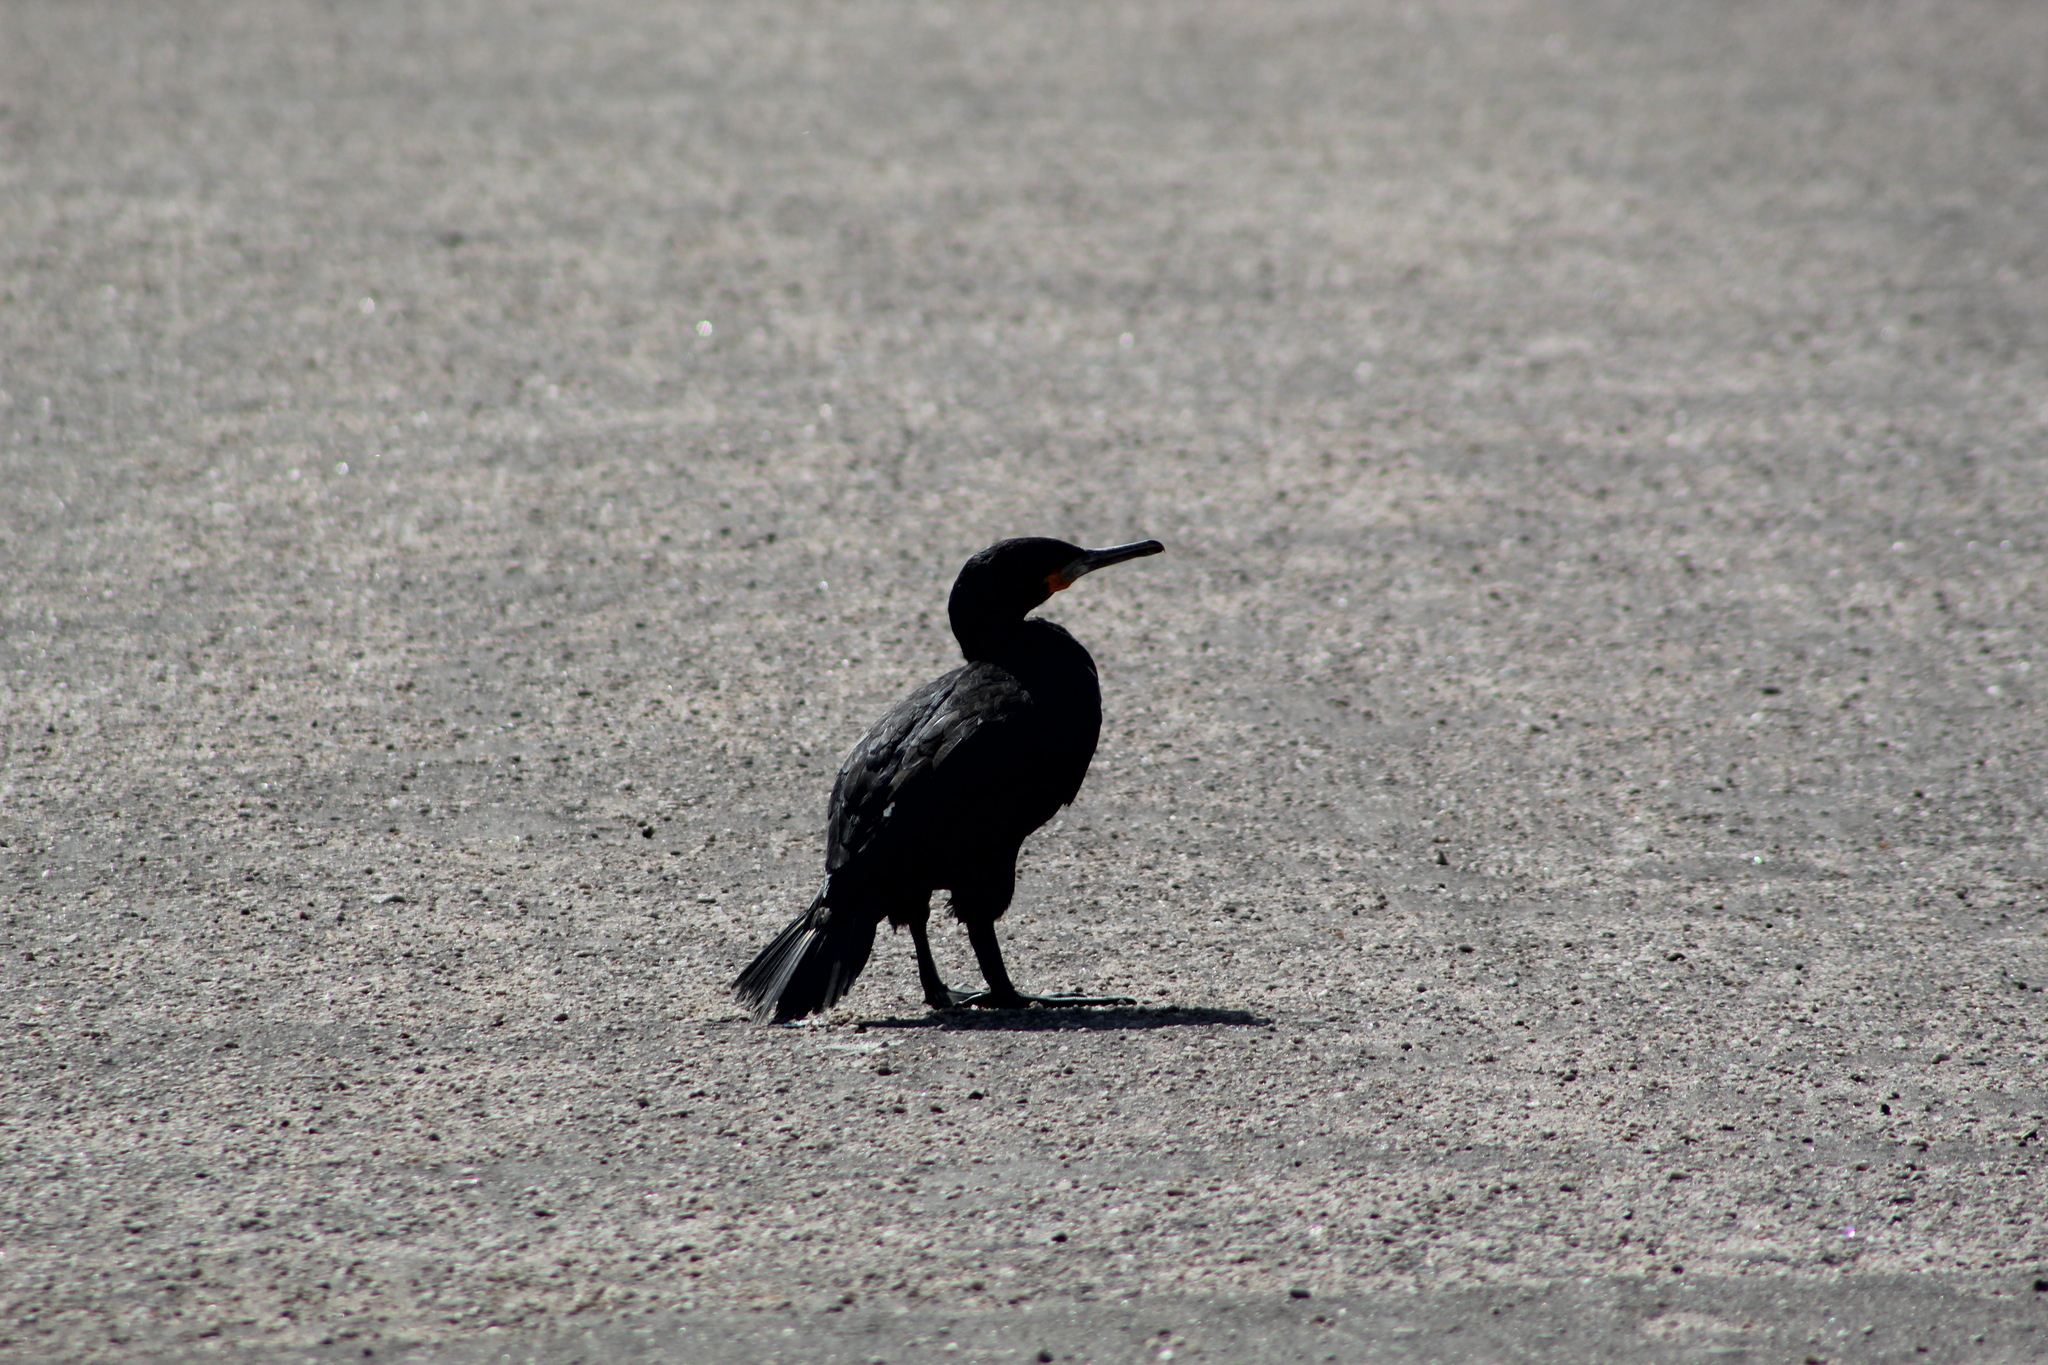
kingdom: Animalia
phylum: Chordata
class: Aves
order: Suliformes
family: Phalacrocoracidae
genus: Phalacrocorax
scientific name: Phalacrocorax capensis
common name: Cape cormorant
